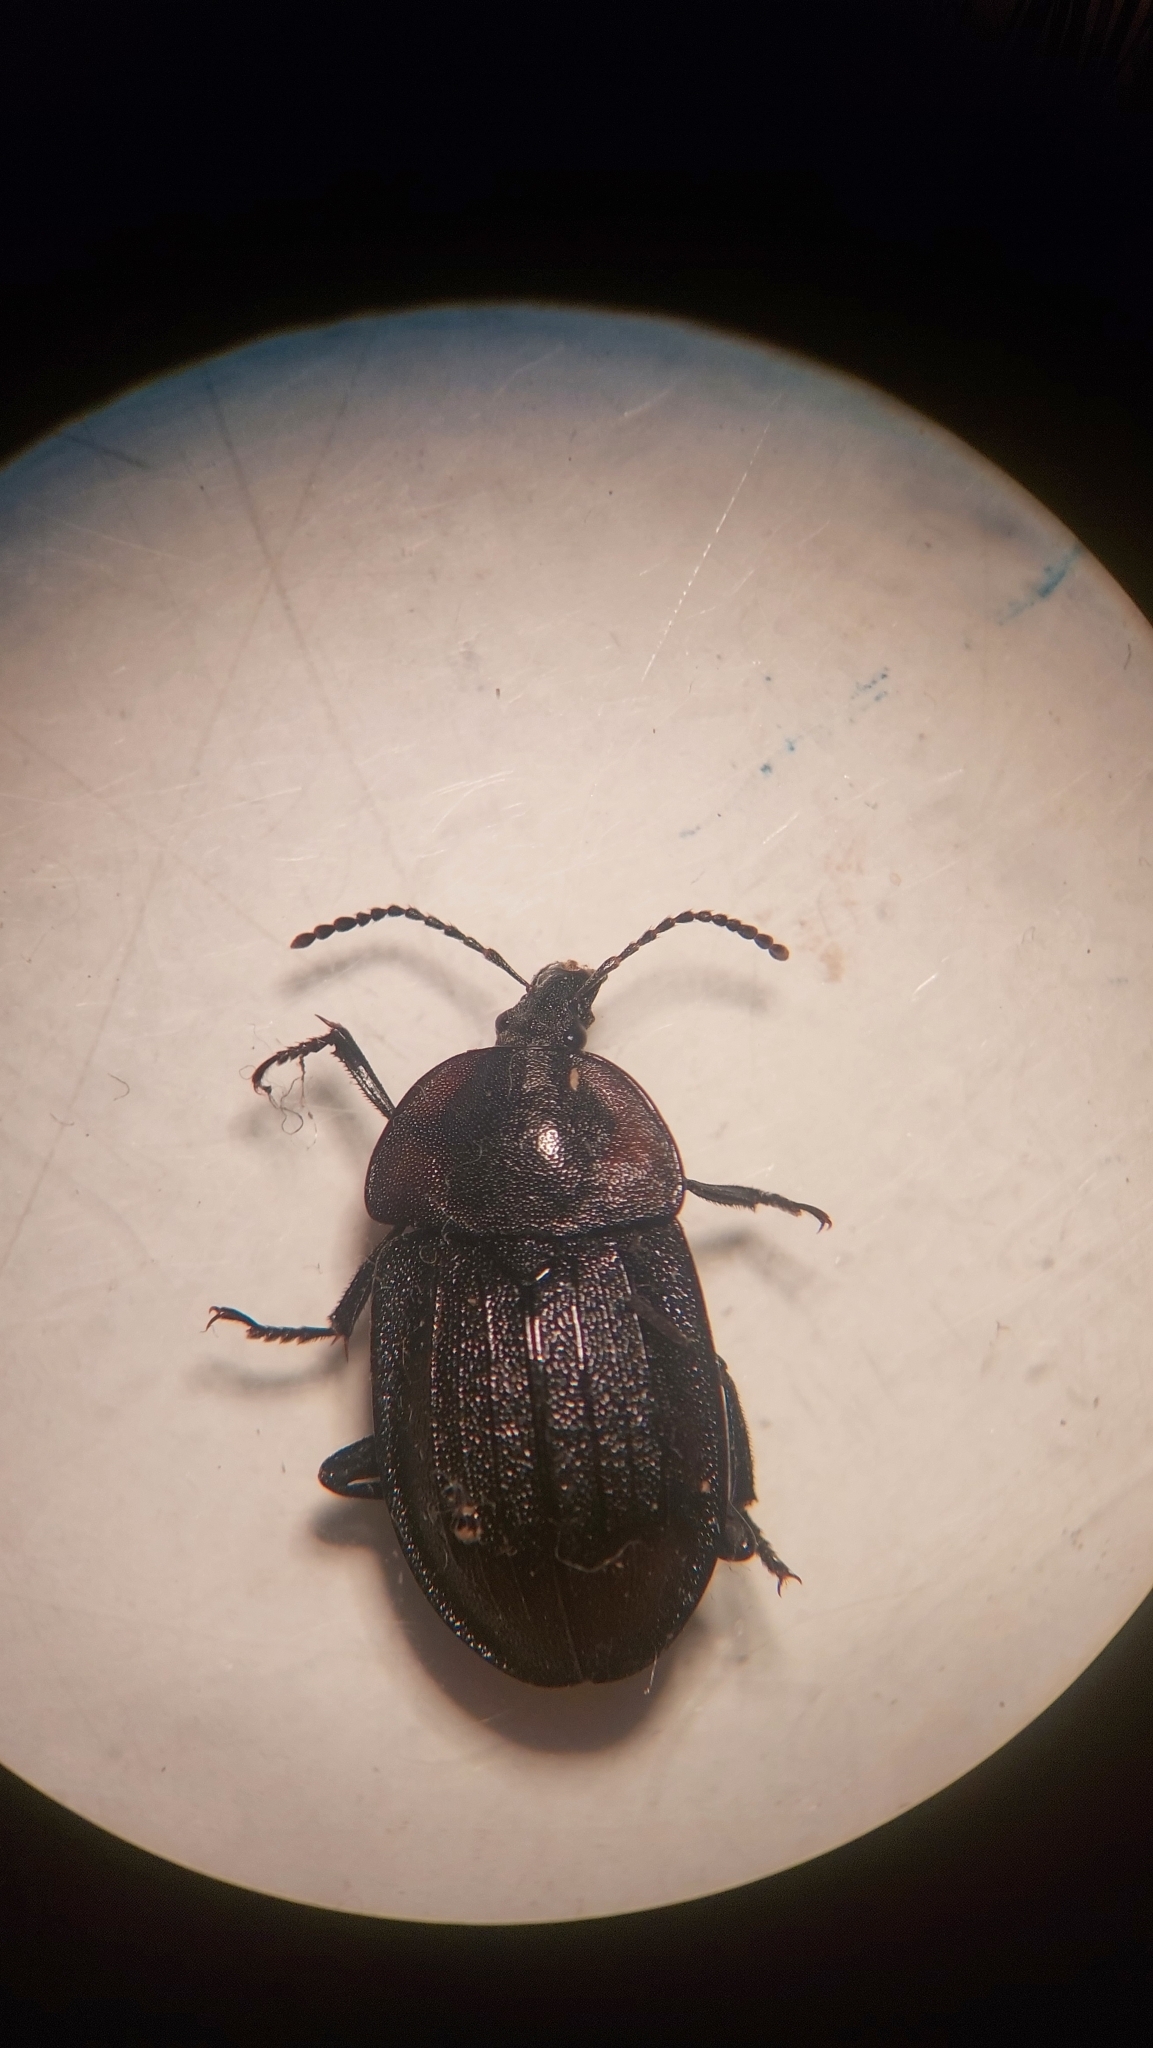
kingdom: Animalia
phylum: Arthropoda
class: Insecta
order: Coleoptera
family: Staphylinidae
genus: Silpha
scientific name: Silpha atrata
